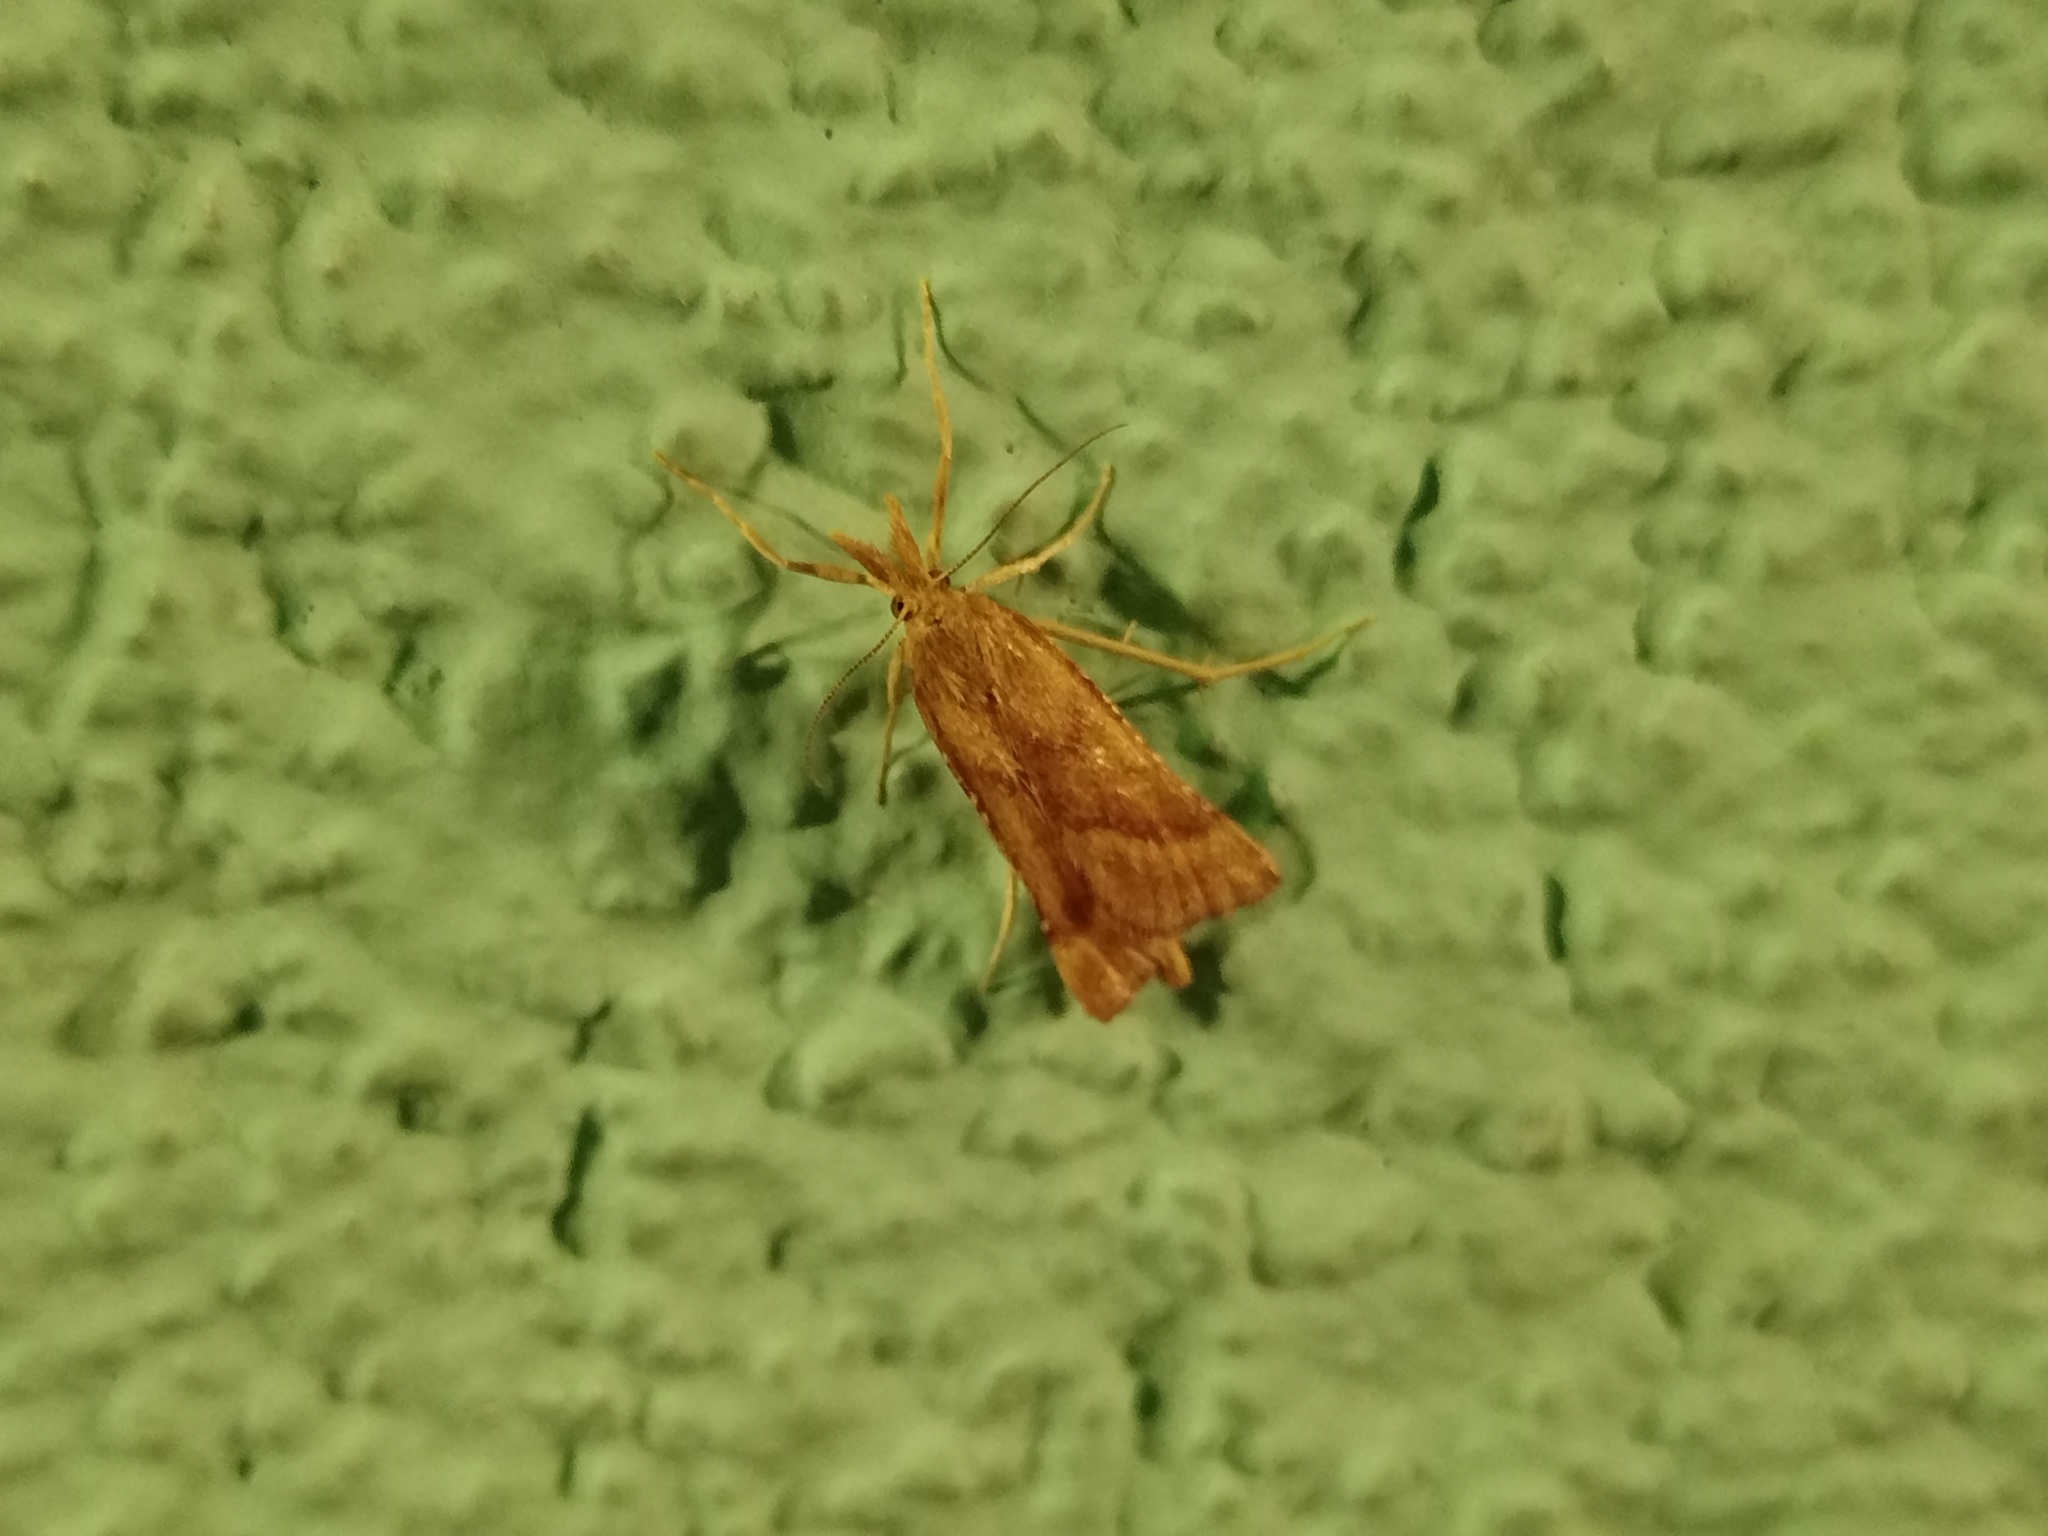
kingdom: Animalia
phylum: Arthropoda
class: Insecta
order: Lepidoptera
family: Pyralidae
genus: Synaphe
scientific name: Synaphe punctalis
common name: Long-legged tabby
